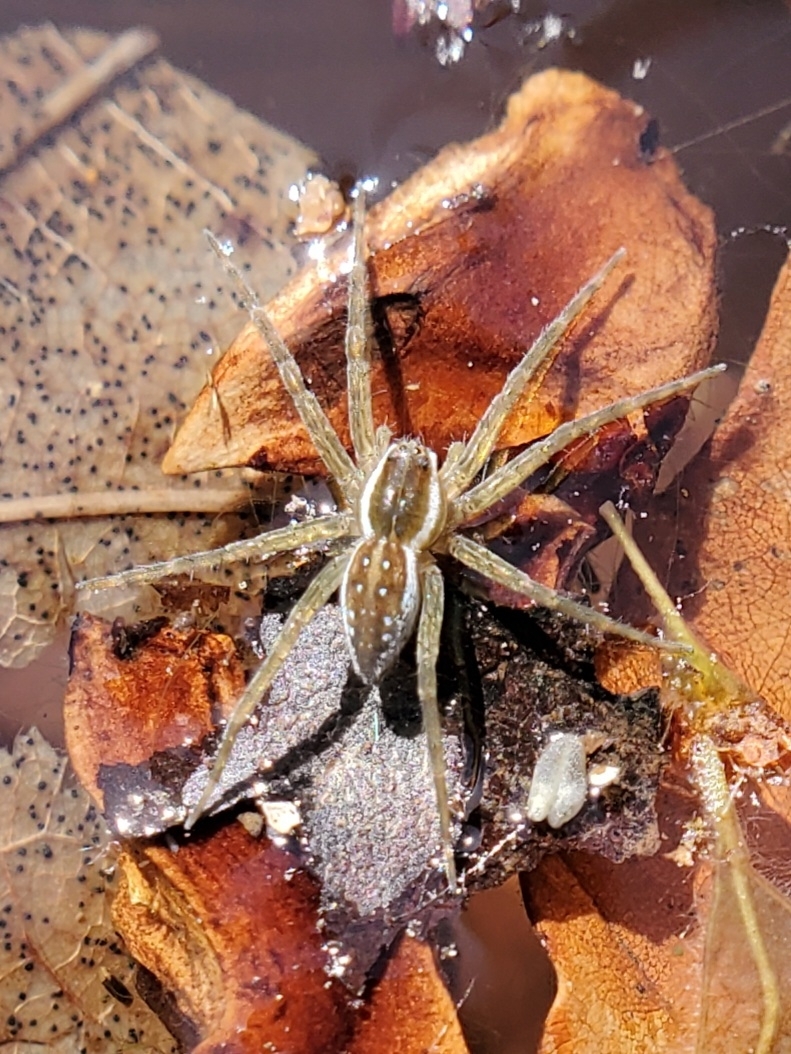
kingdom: Animalia
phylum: Arthropoda
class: Arachnida
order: Araneae
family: Pisauridae
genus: Dolomedes
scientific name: Dolomedes triton
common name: Six-spotted fishing spider
